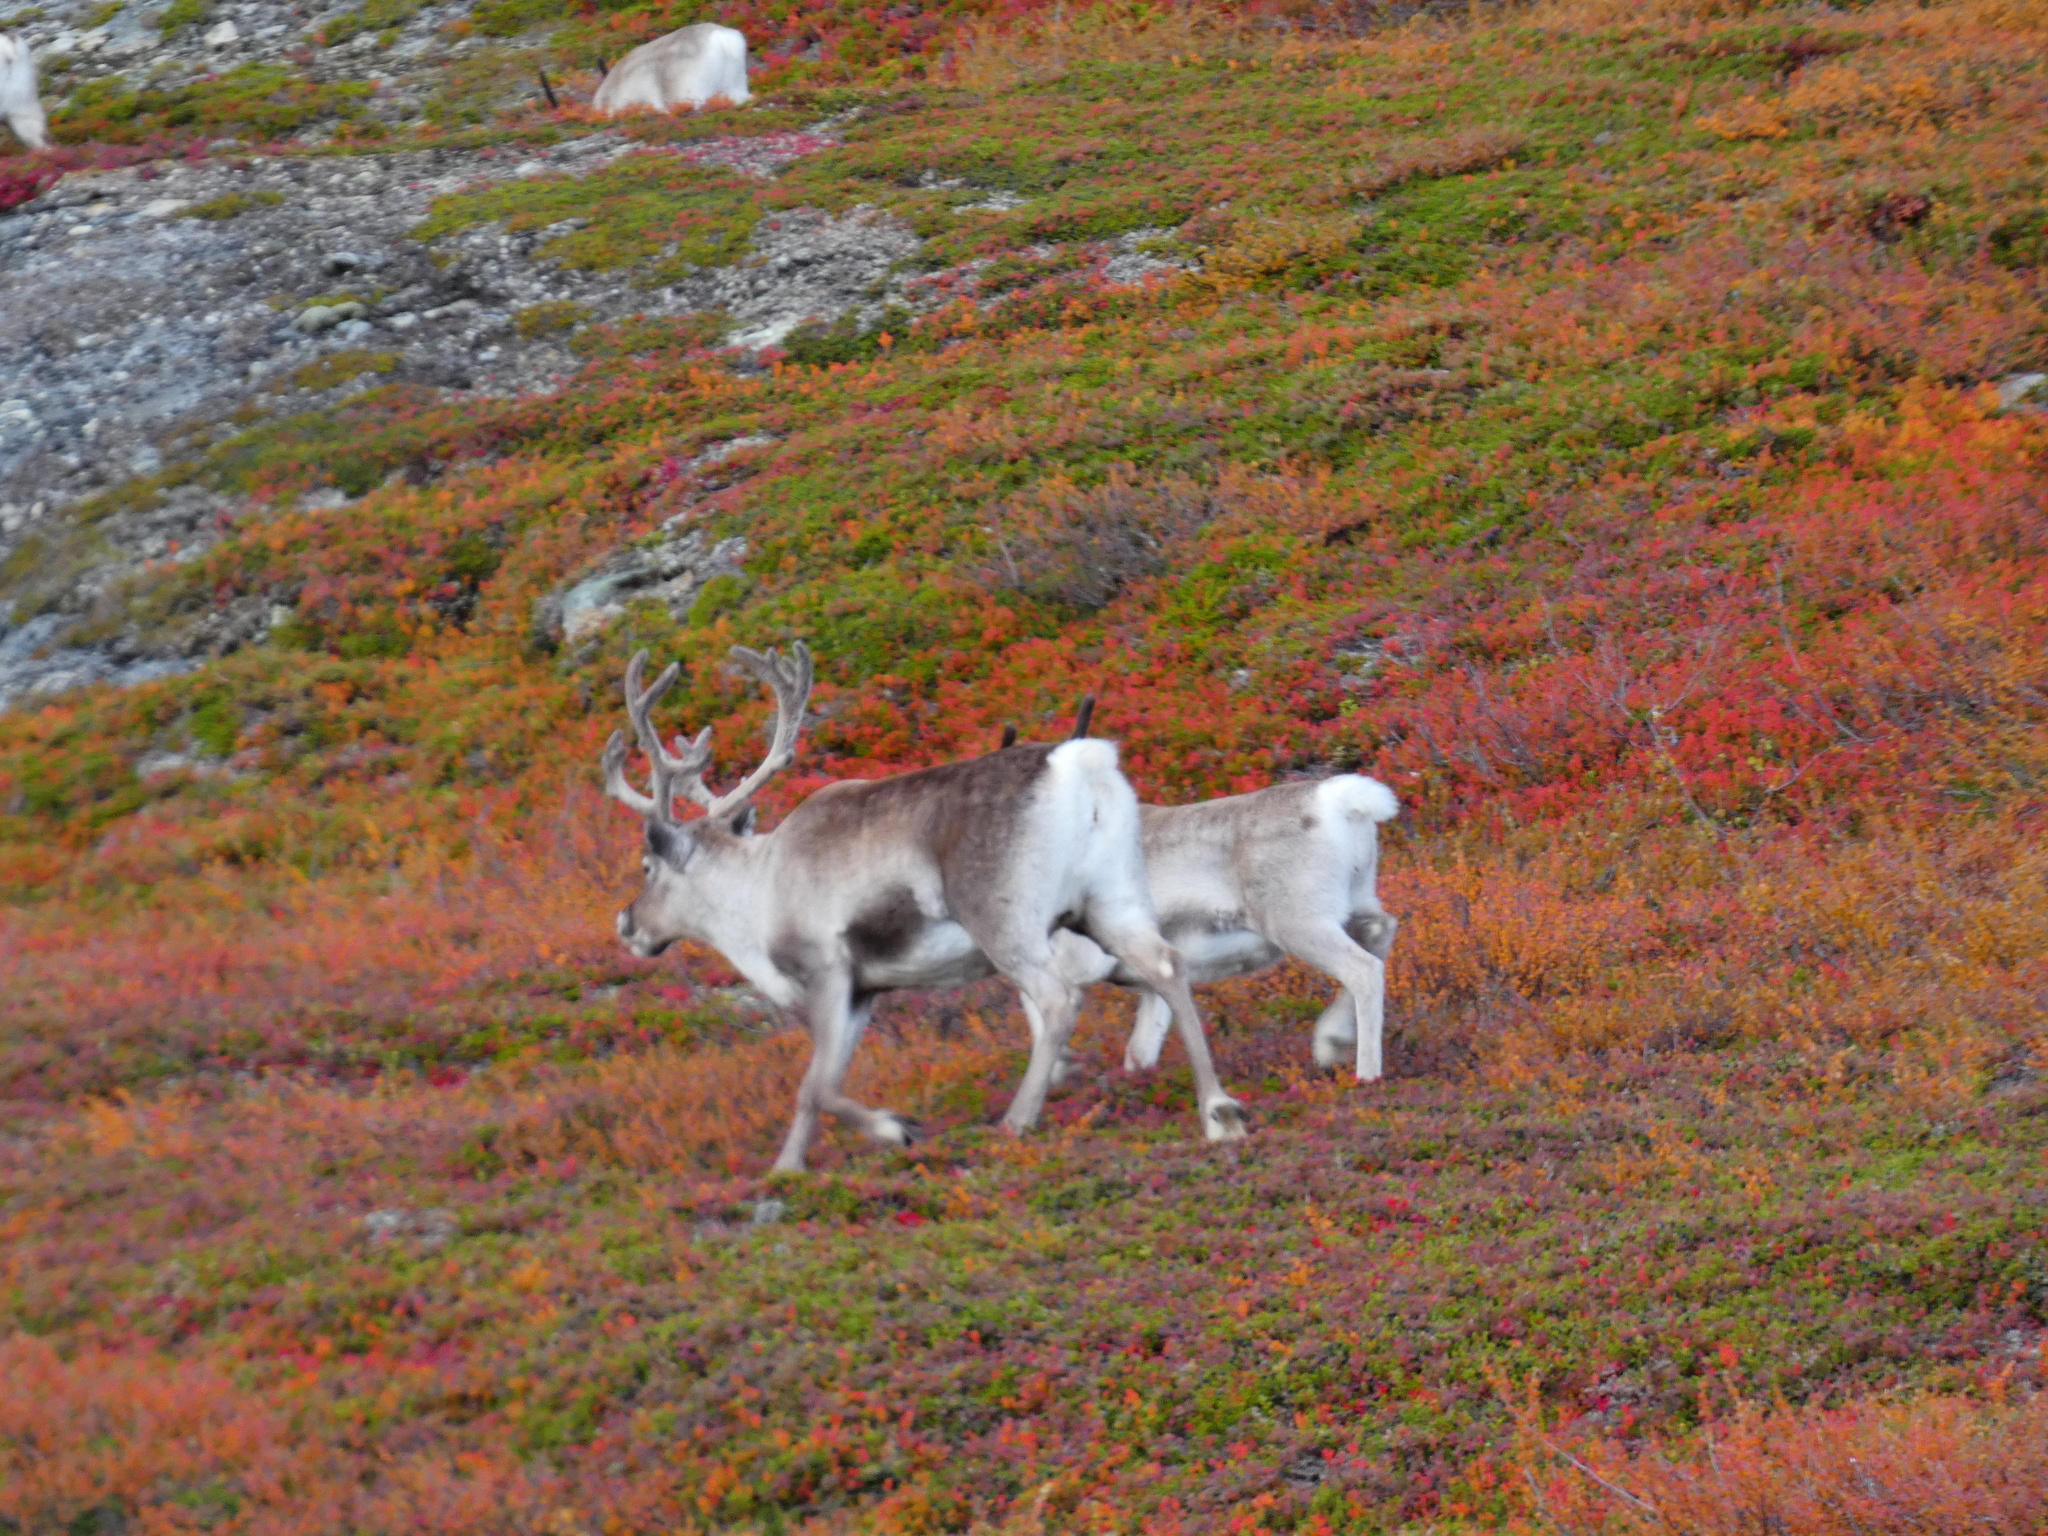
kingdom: Animalia
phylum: Chordata
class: Mammalia
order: Artiodactyla
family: Cervidae
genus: Rangifer
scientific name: Rangifer tarandus
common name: Reindeer
